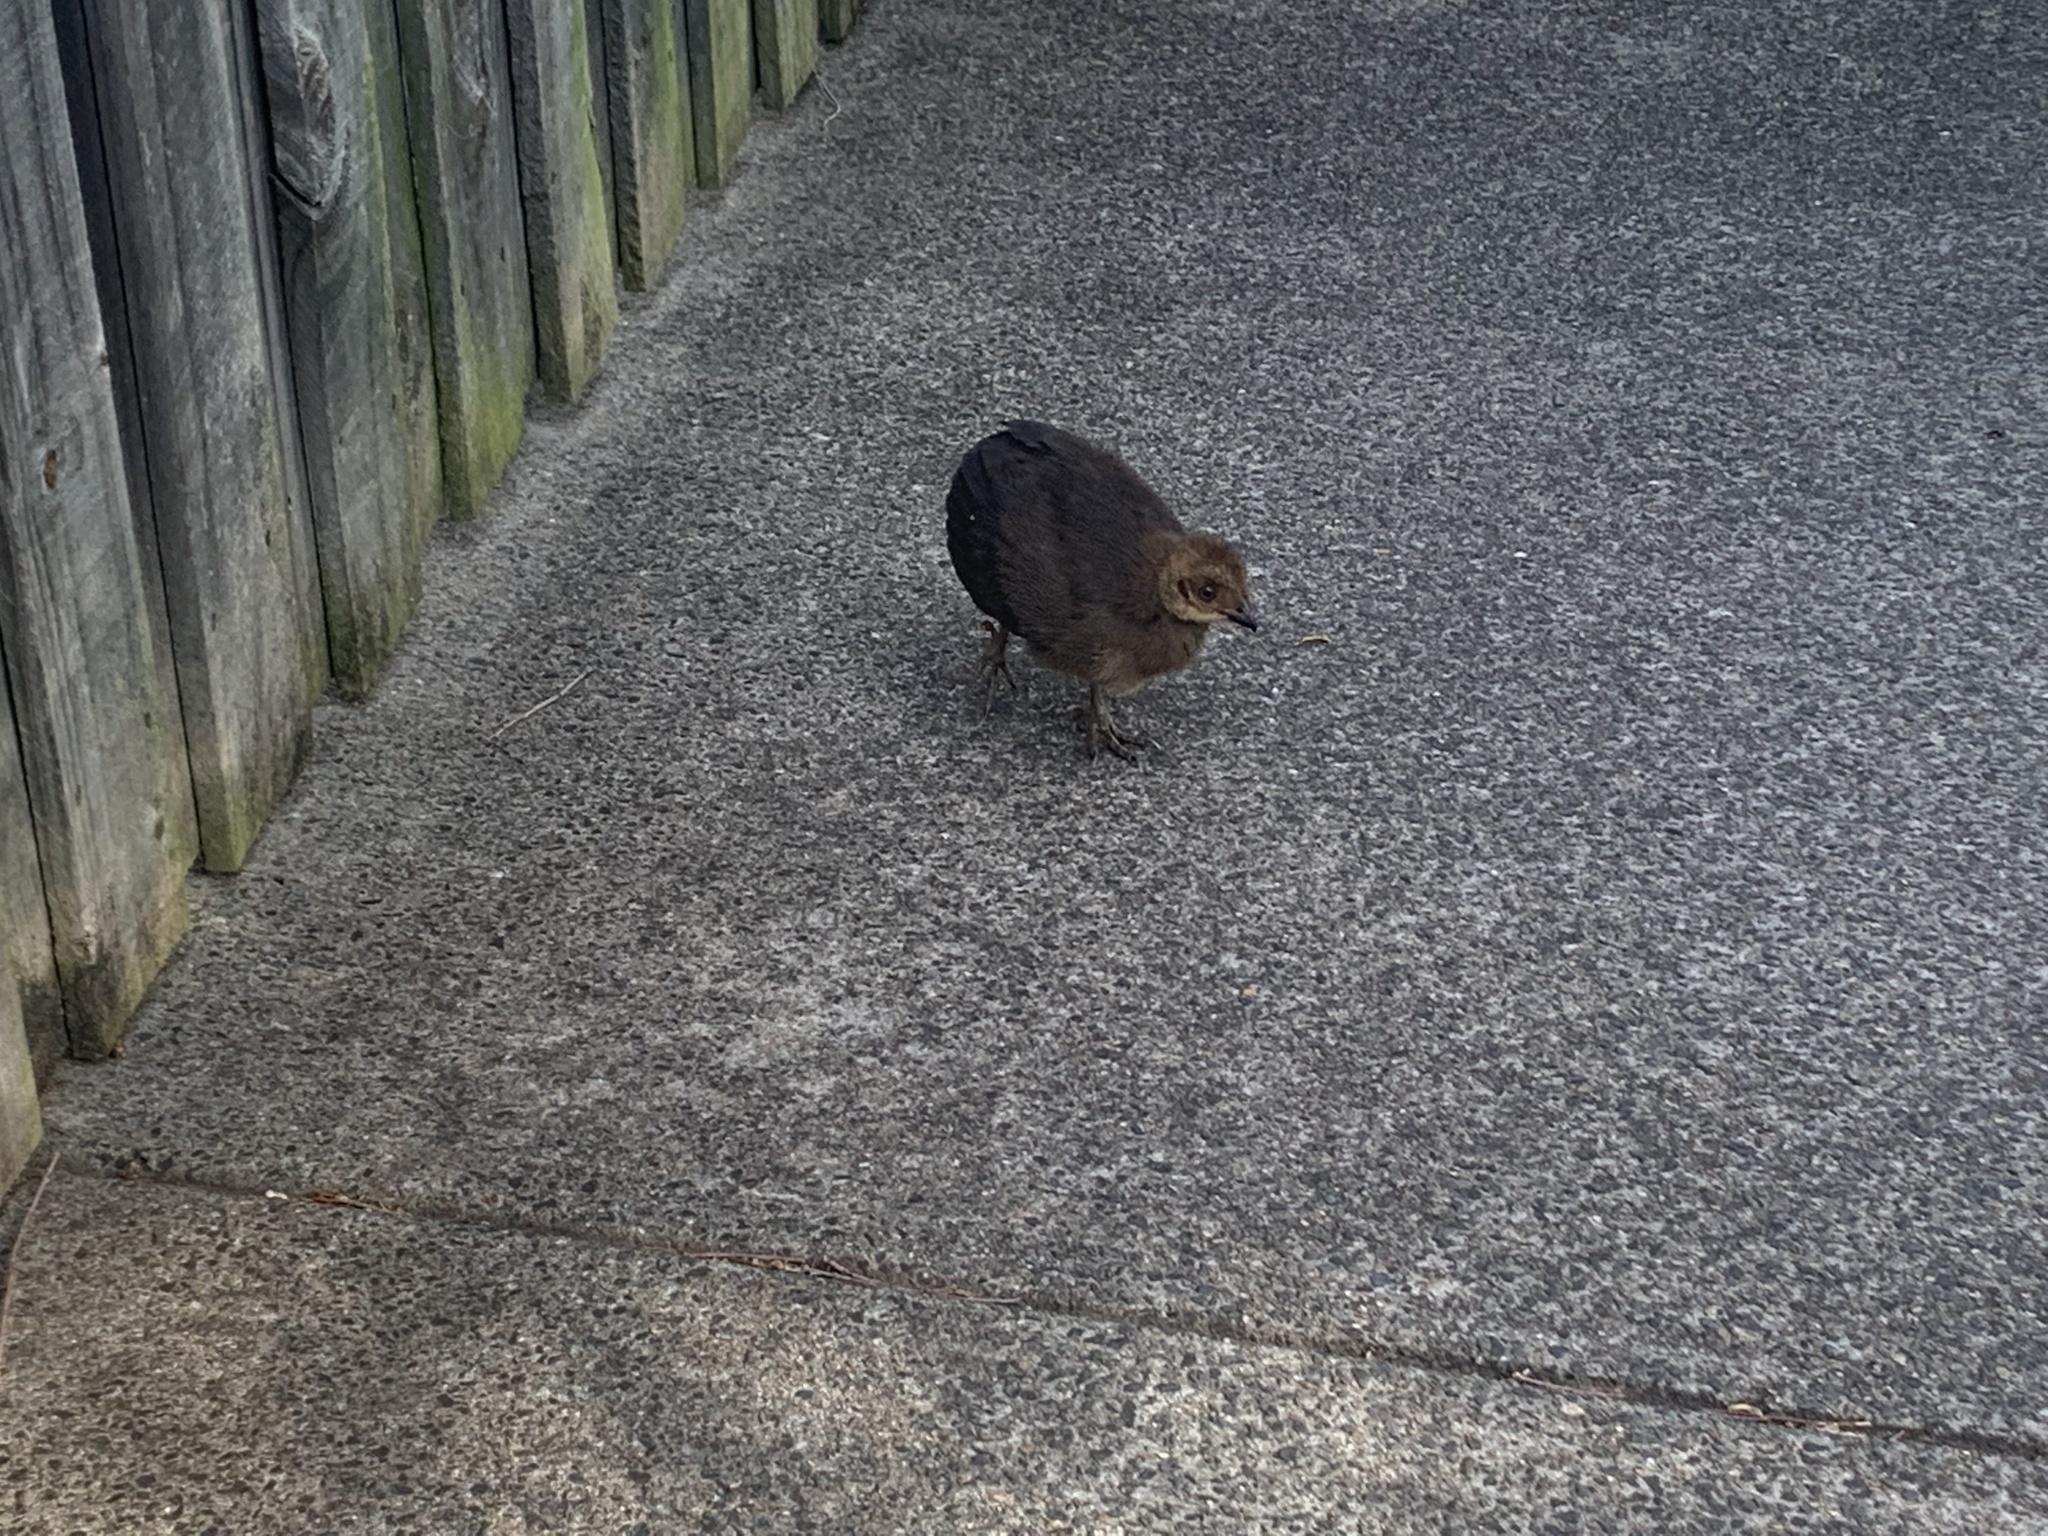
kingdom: Animalia
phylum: Chordata
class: Aves
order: Galliformes
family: Megapodiidae
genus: Alectura
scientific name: Alectura lathami
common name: Australian brushturkey
